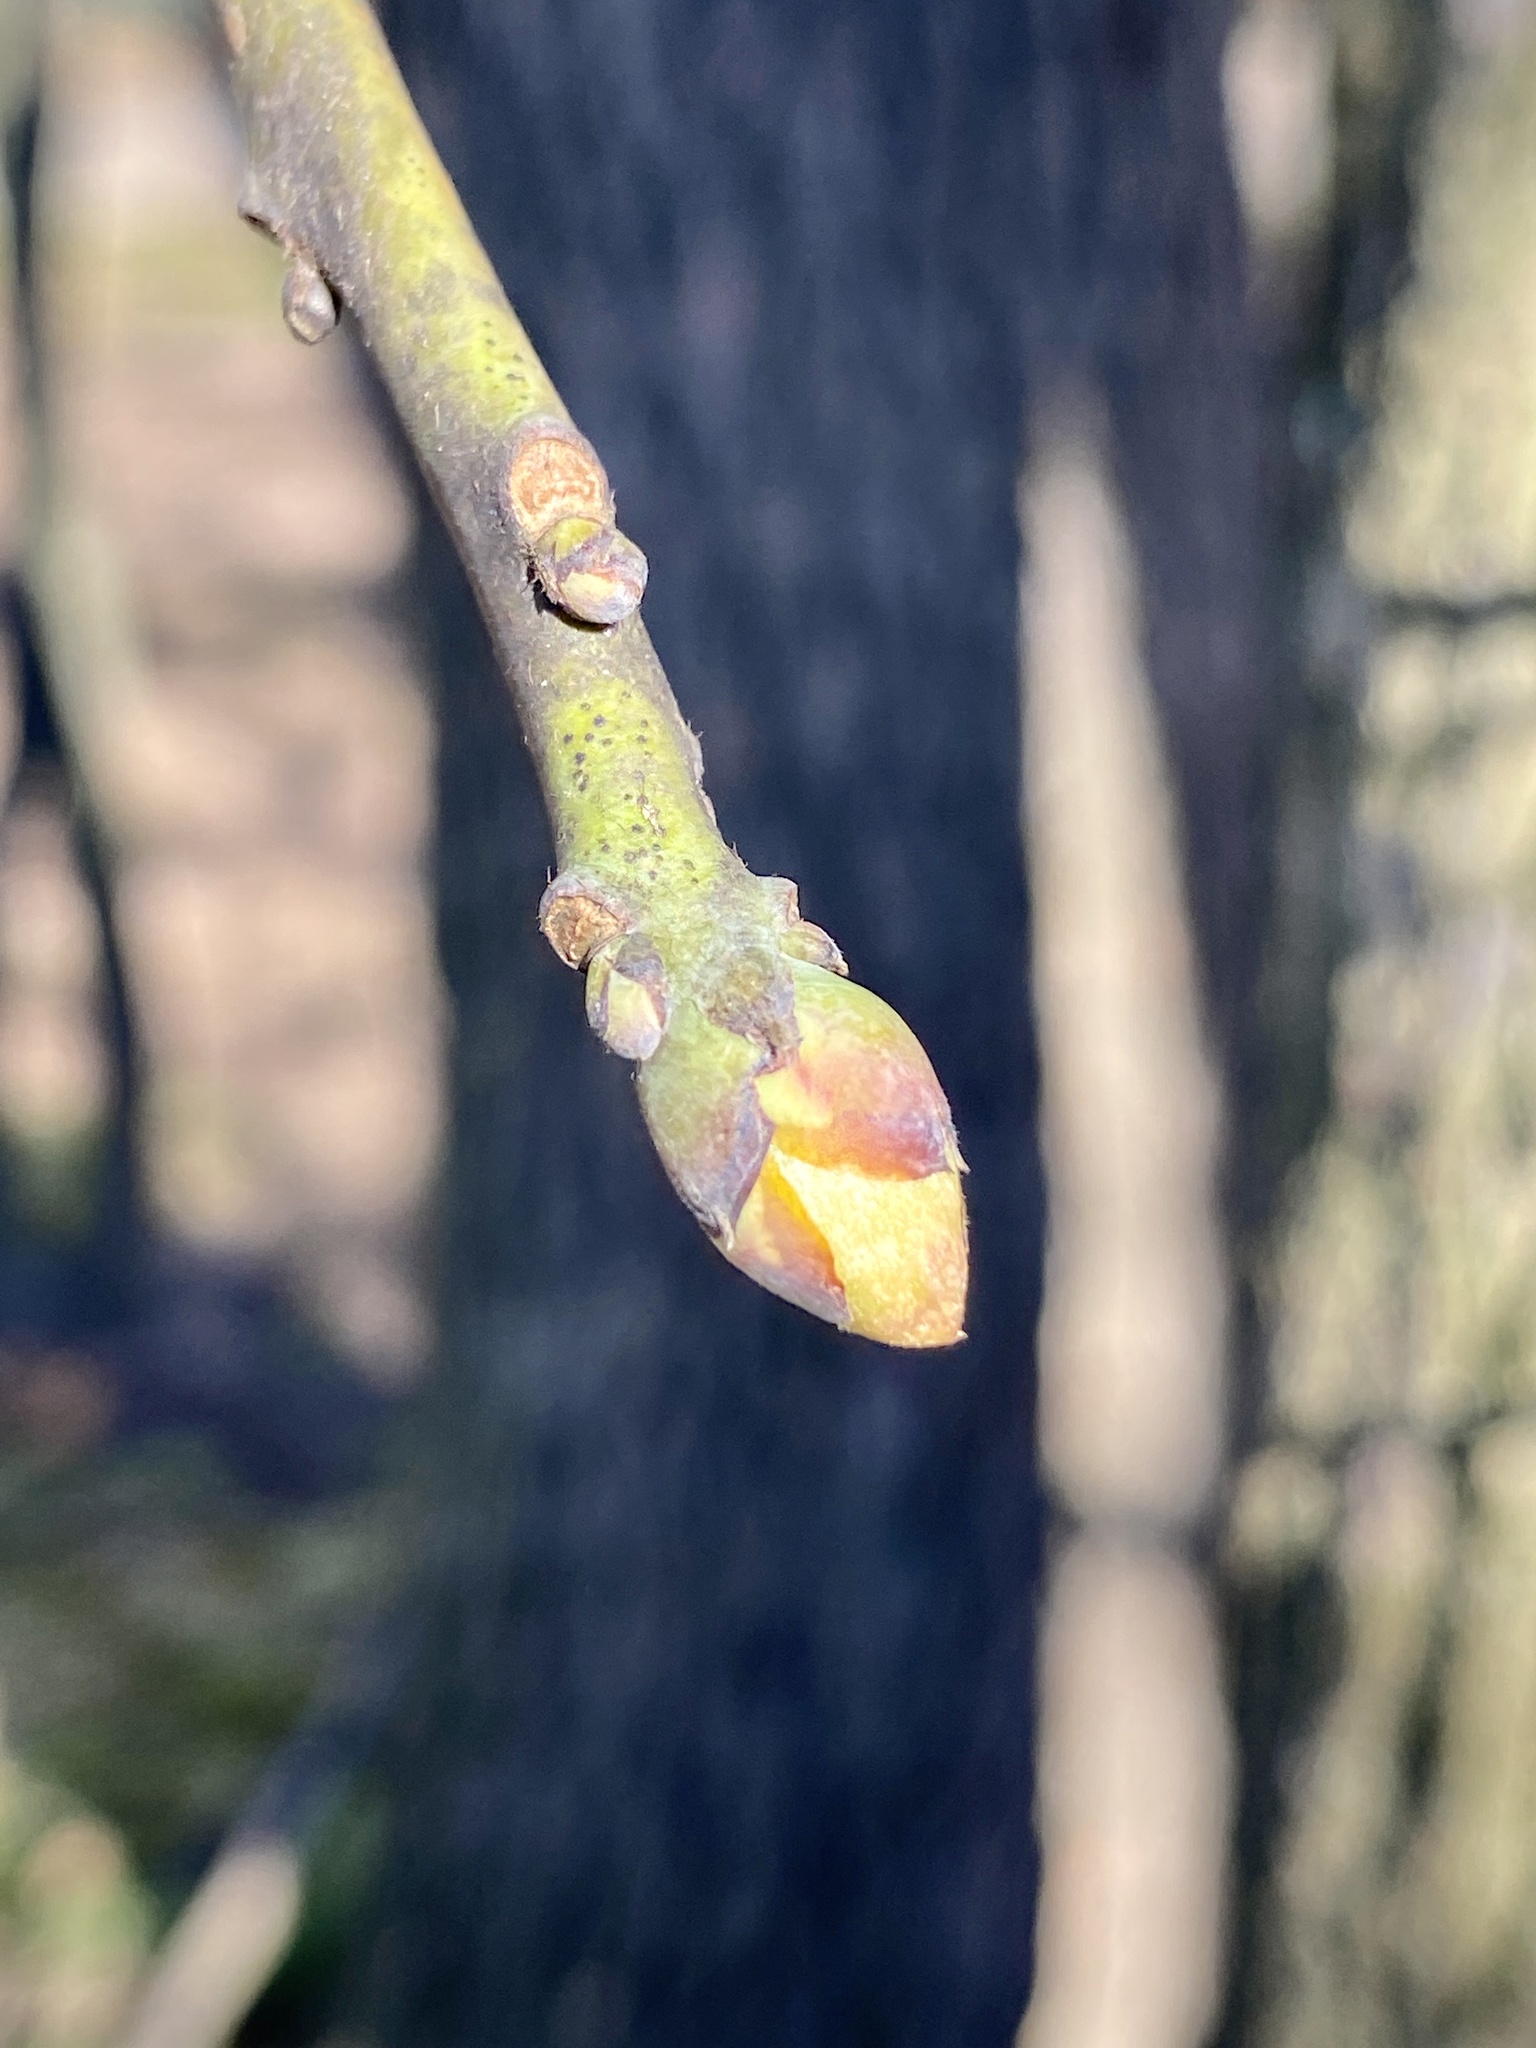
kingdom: Plantae
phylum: Tracheophyta
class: Magnoliopsida
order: Laurales
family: Lauraceae
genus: Sassafras
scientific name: Sassafras albidum
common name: Sassafras
